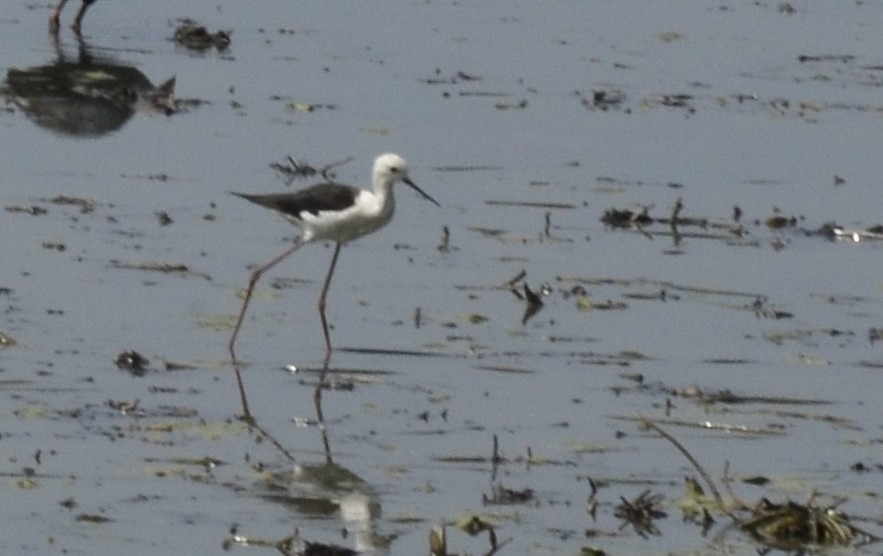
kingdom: Animalia
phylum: Chordata
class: Aves
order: Charadriiformes
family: Recurvirostridae
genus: Himantopus
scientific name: Himantopus himantopus
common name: Black-winged stilt
